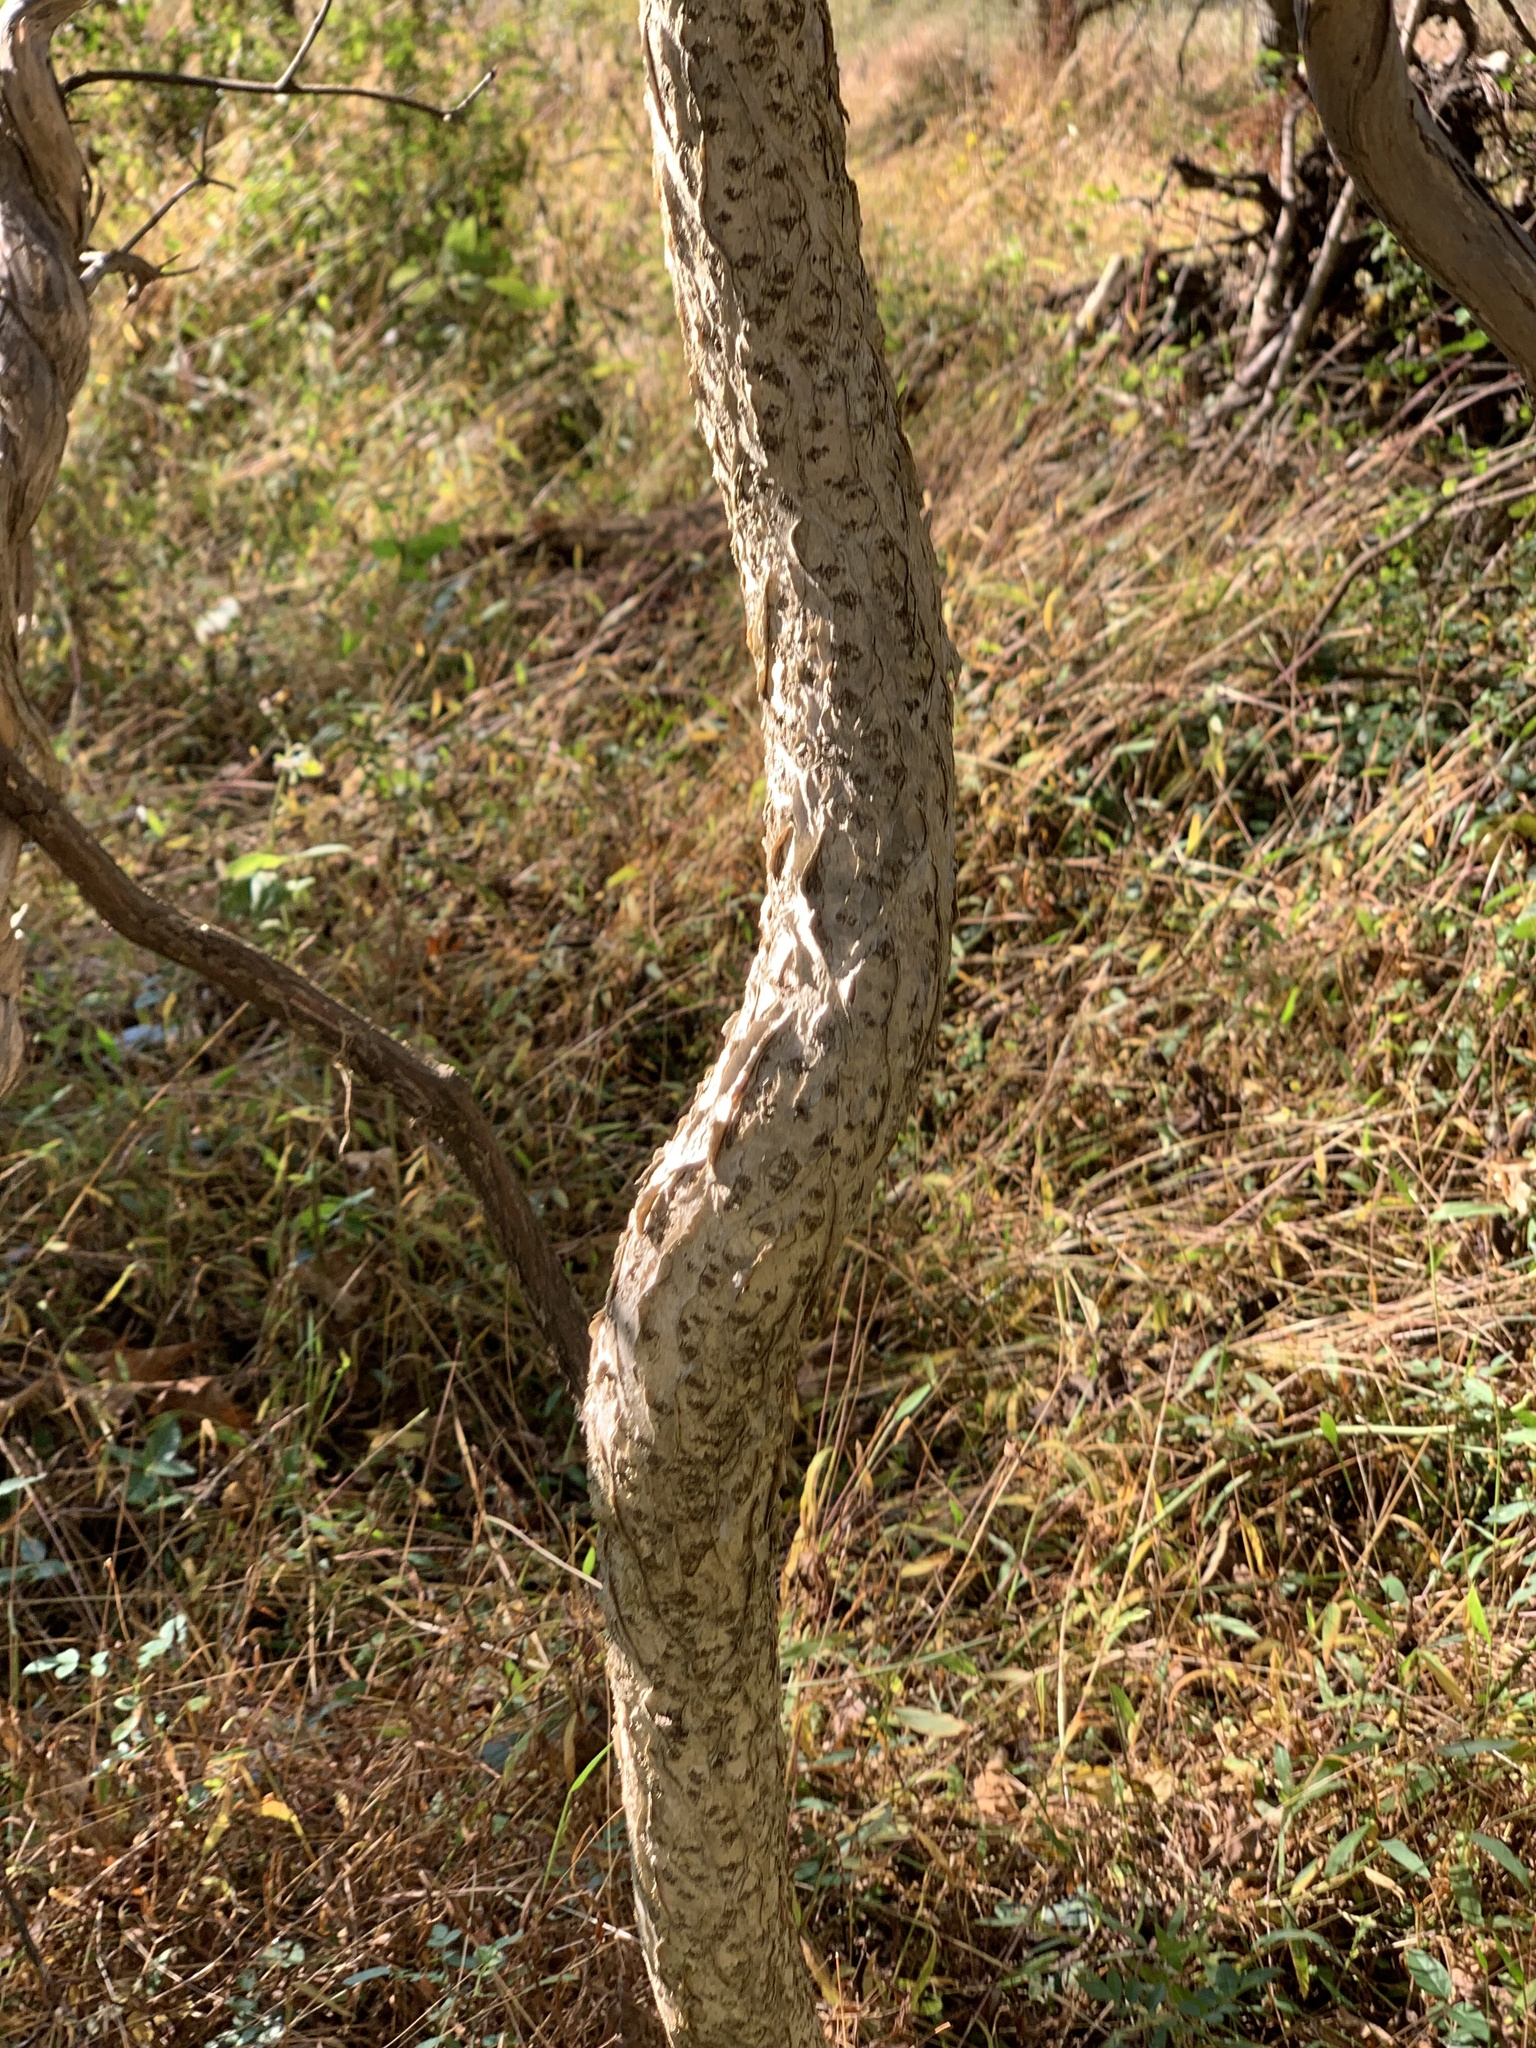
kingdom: Plantae
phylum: Tracheophyta
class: Magnoliopsida
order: Celastrales
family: Celastraceae
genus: Celastrus
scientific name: Celastrus orbiculatus
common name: Oriental bittersweet
